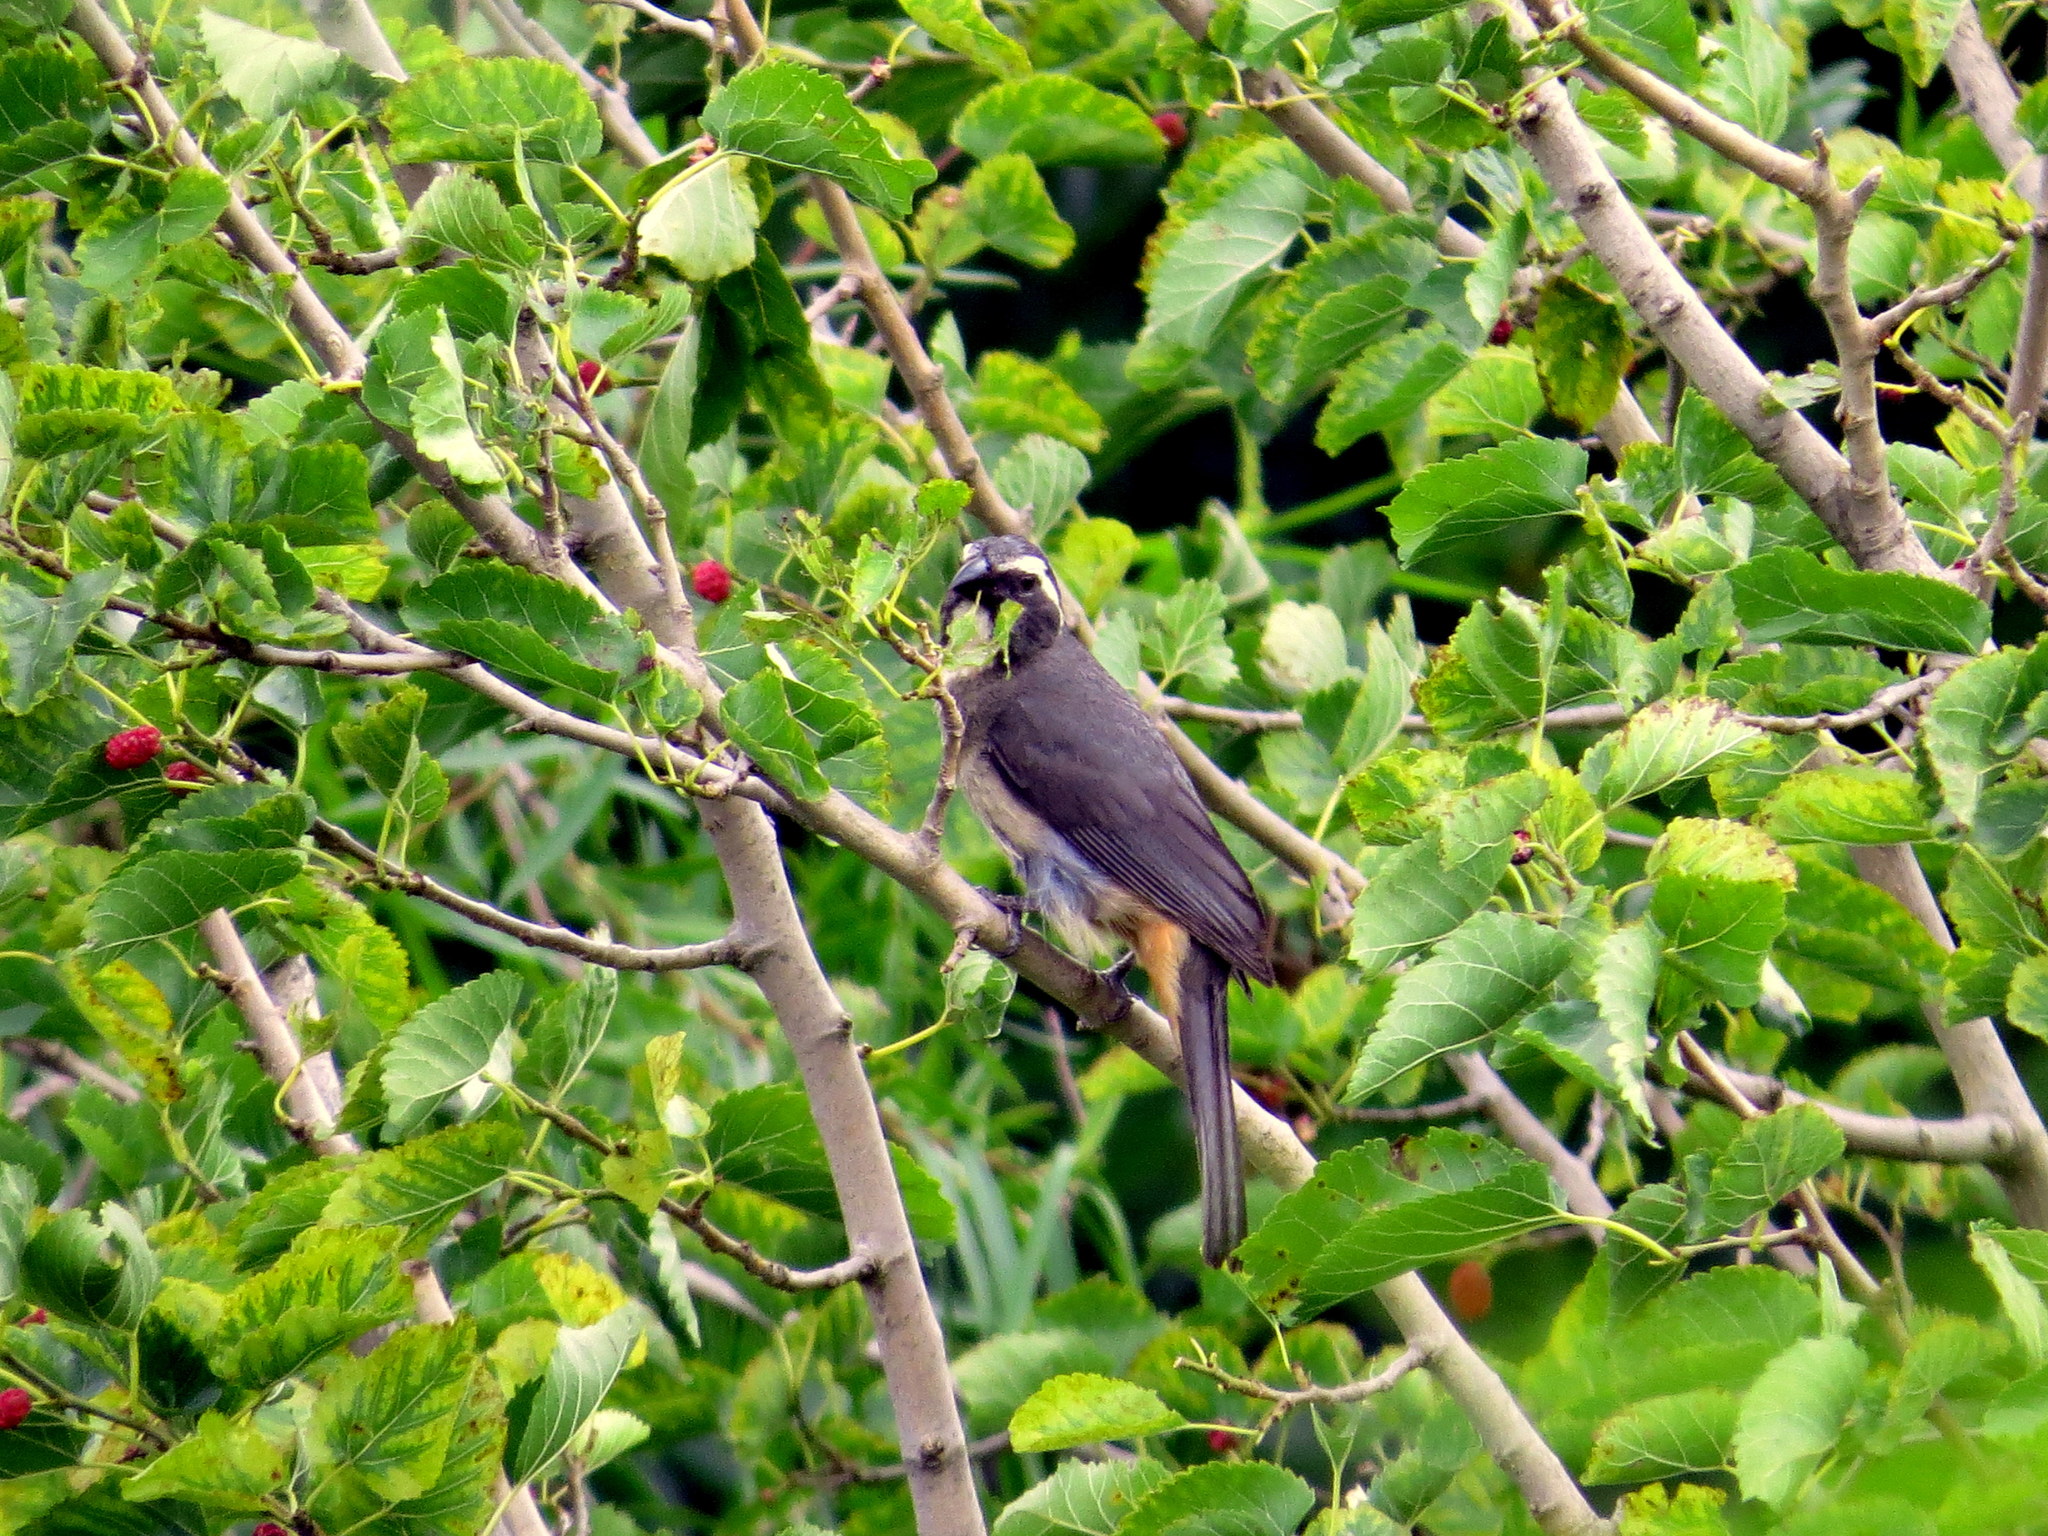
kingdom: Animalia
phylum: Chordata
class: Aves
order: Passeriformes
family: Thraupidae
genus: Saltator
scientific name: Saltator coerulescens
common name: Grayish saltator
